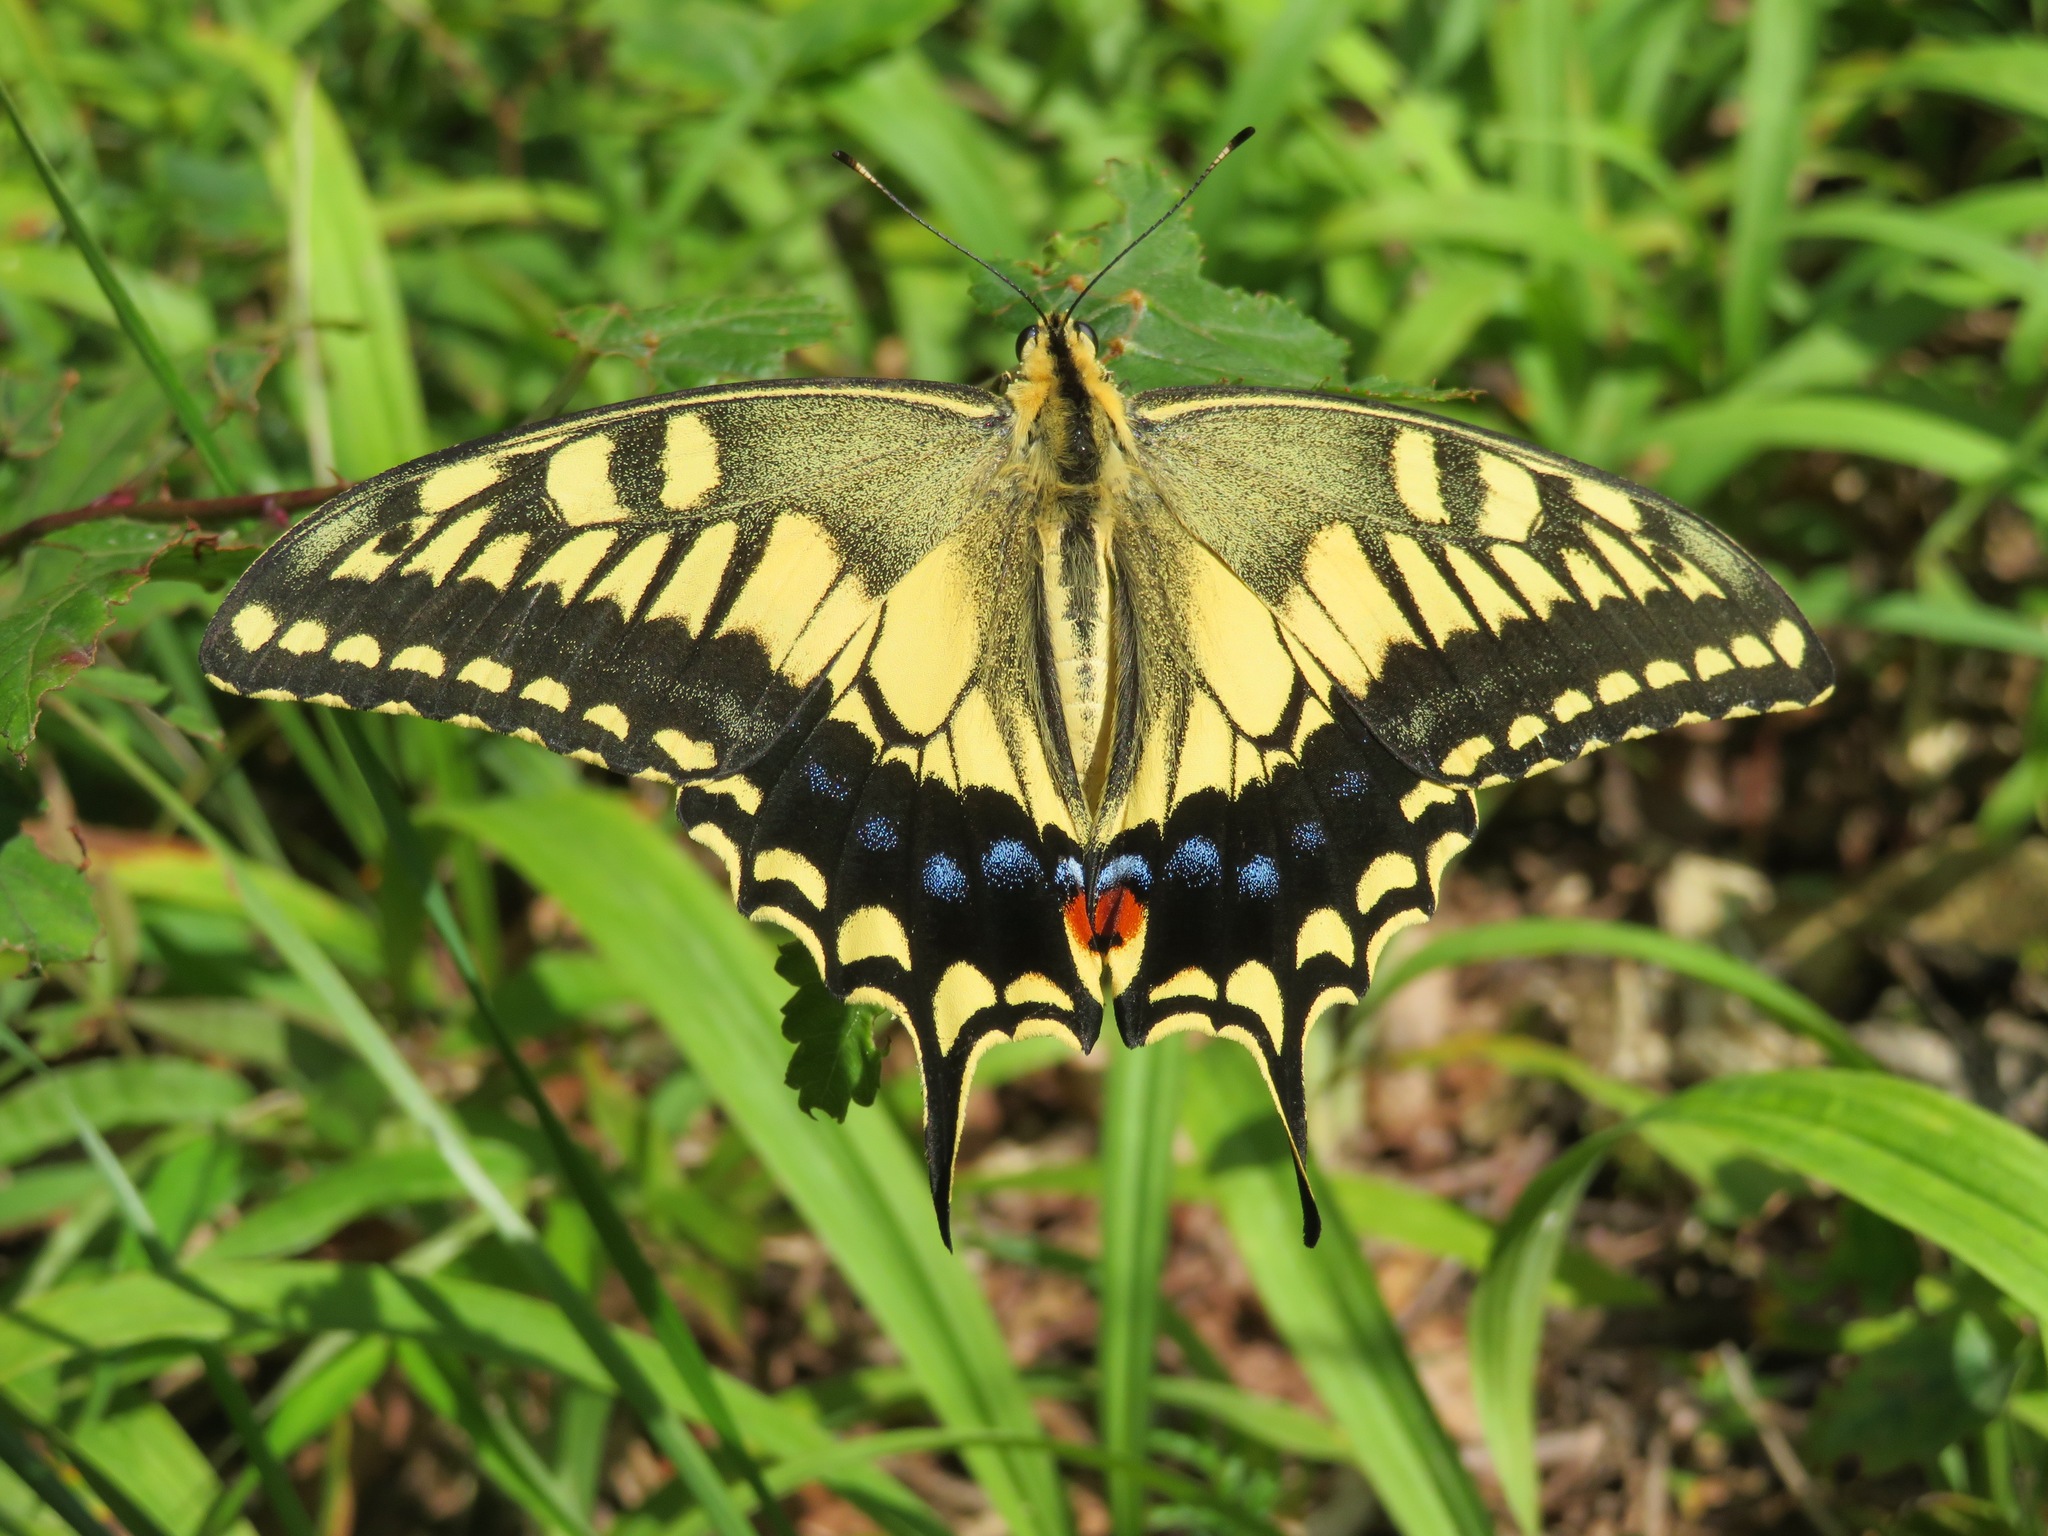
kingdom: Animalia
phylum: Arthropoda
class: Insecta
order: Lepidoptera
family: Papilionidae
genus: Papilio
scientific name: Papilio machaon
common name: Swallowtail
